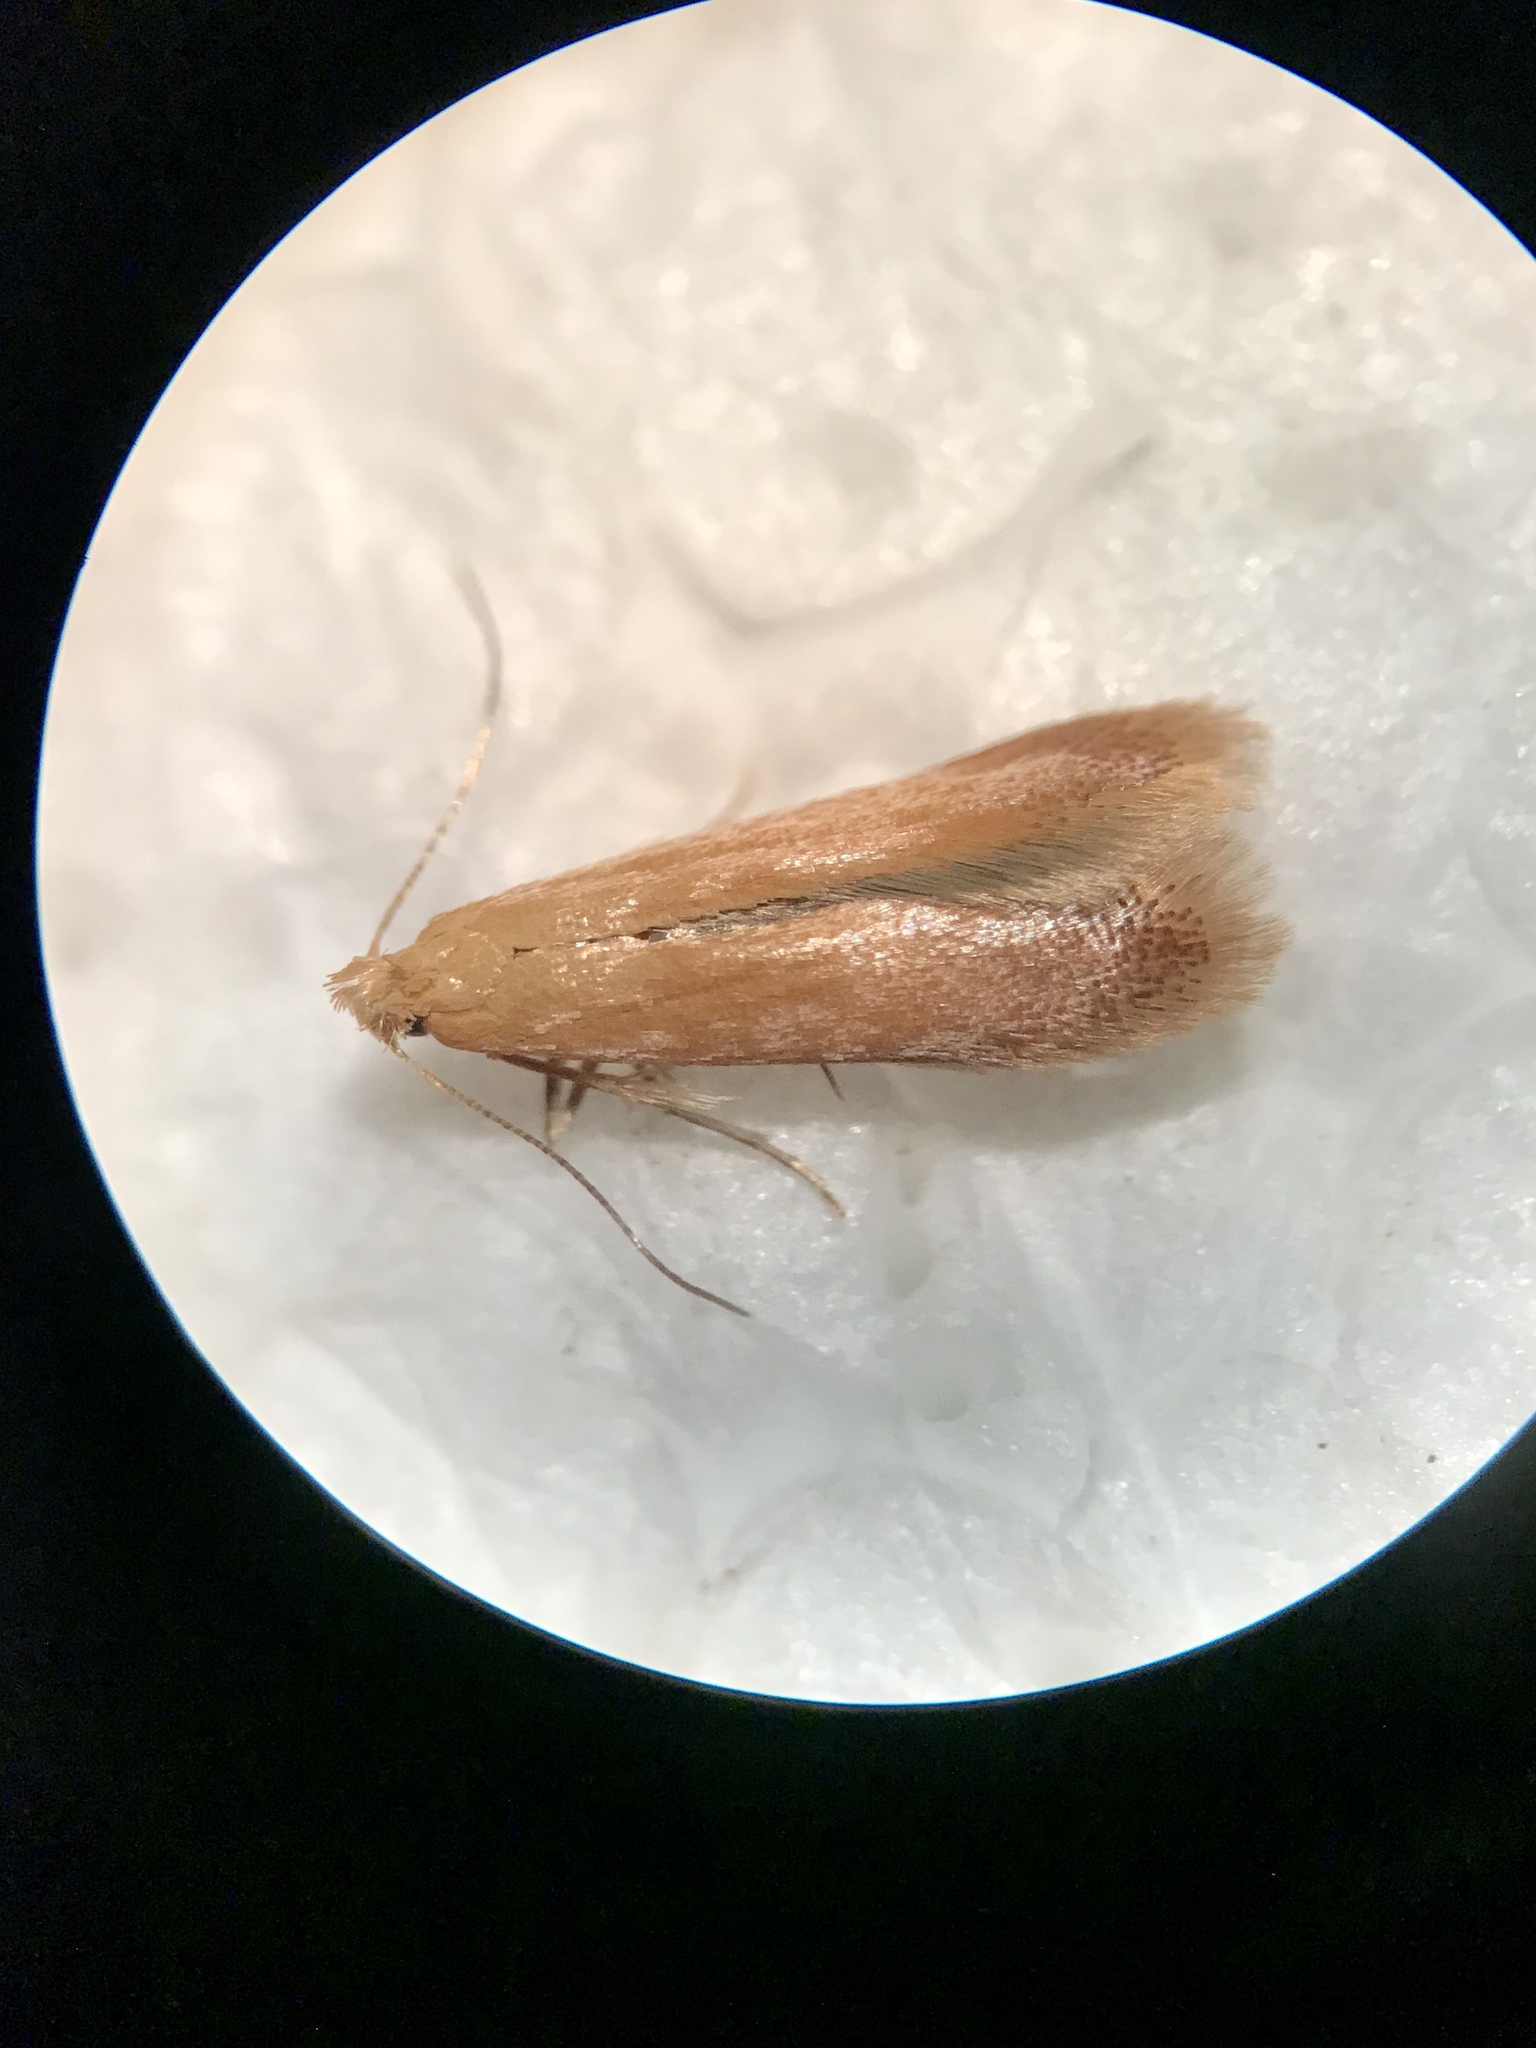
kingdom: Animalia
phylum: Arthropoda
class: Insecta
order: Lepidoptera
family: Tischeriidae
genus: Coptotriche
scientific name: Coptotriche zelleriella
